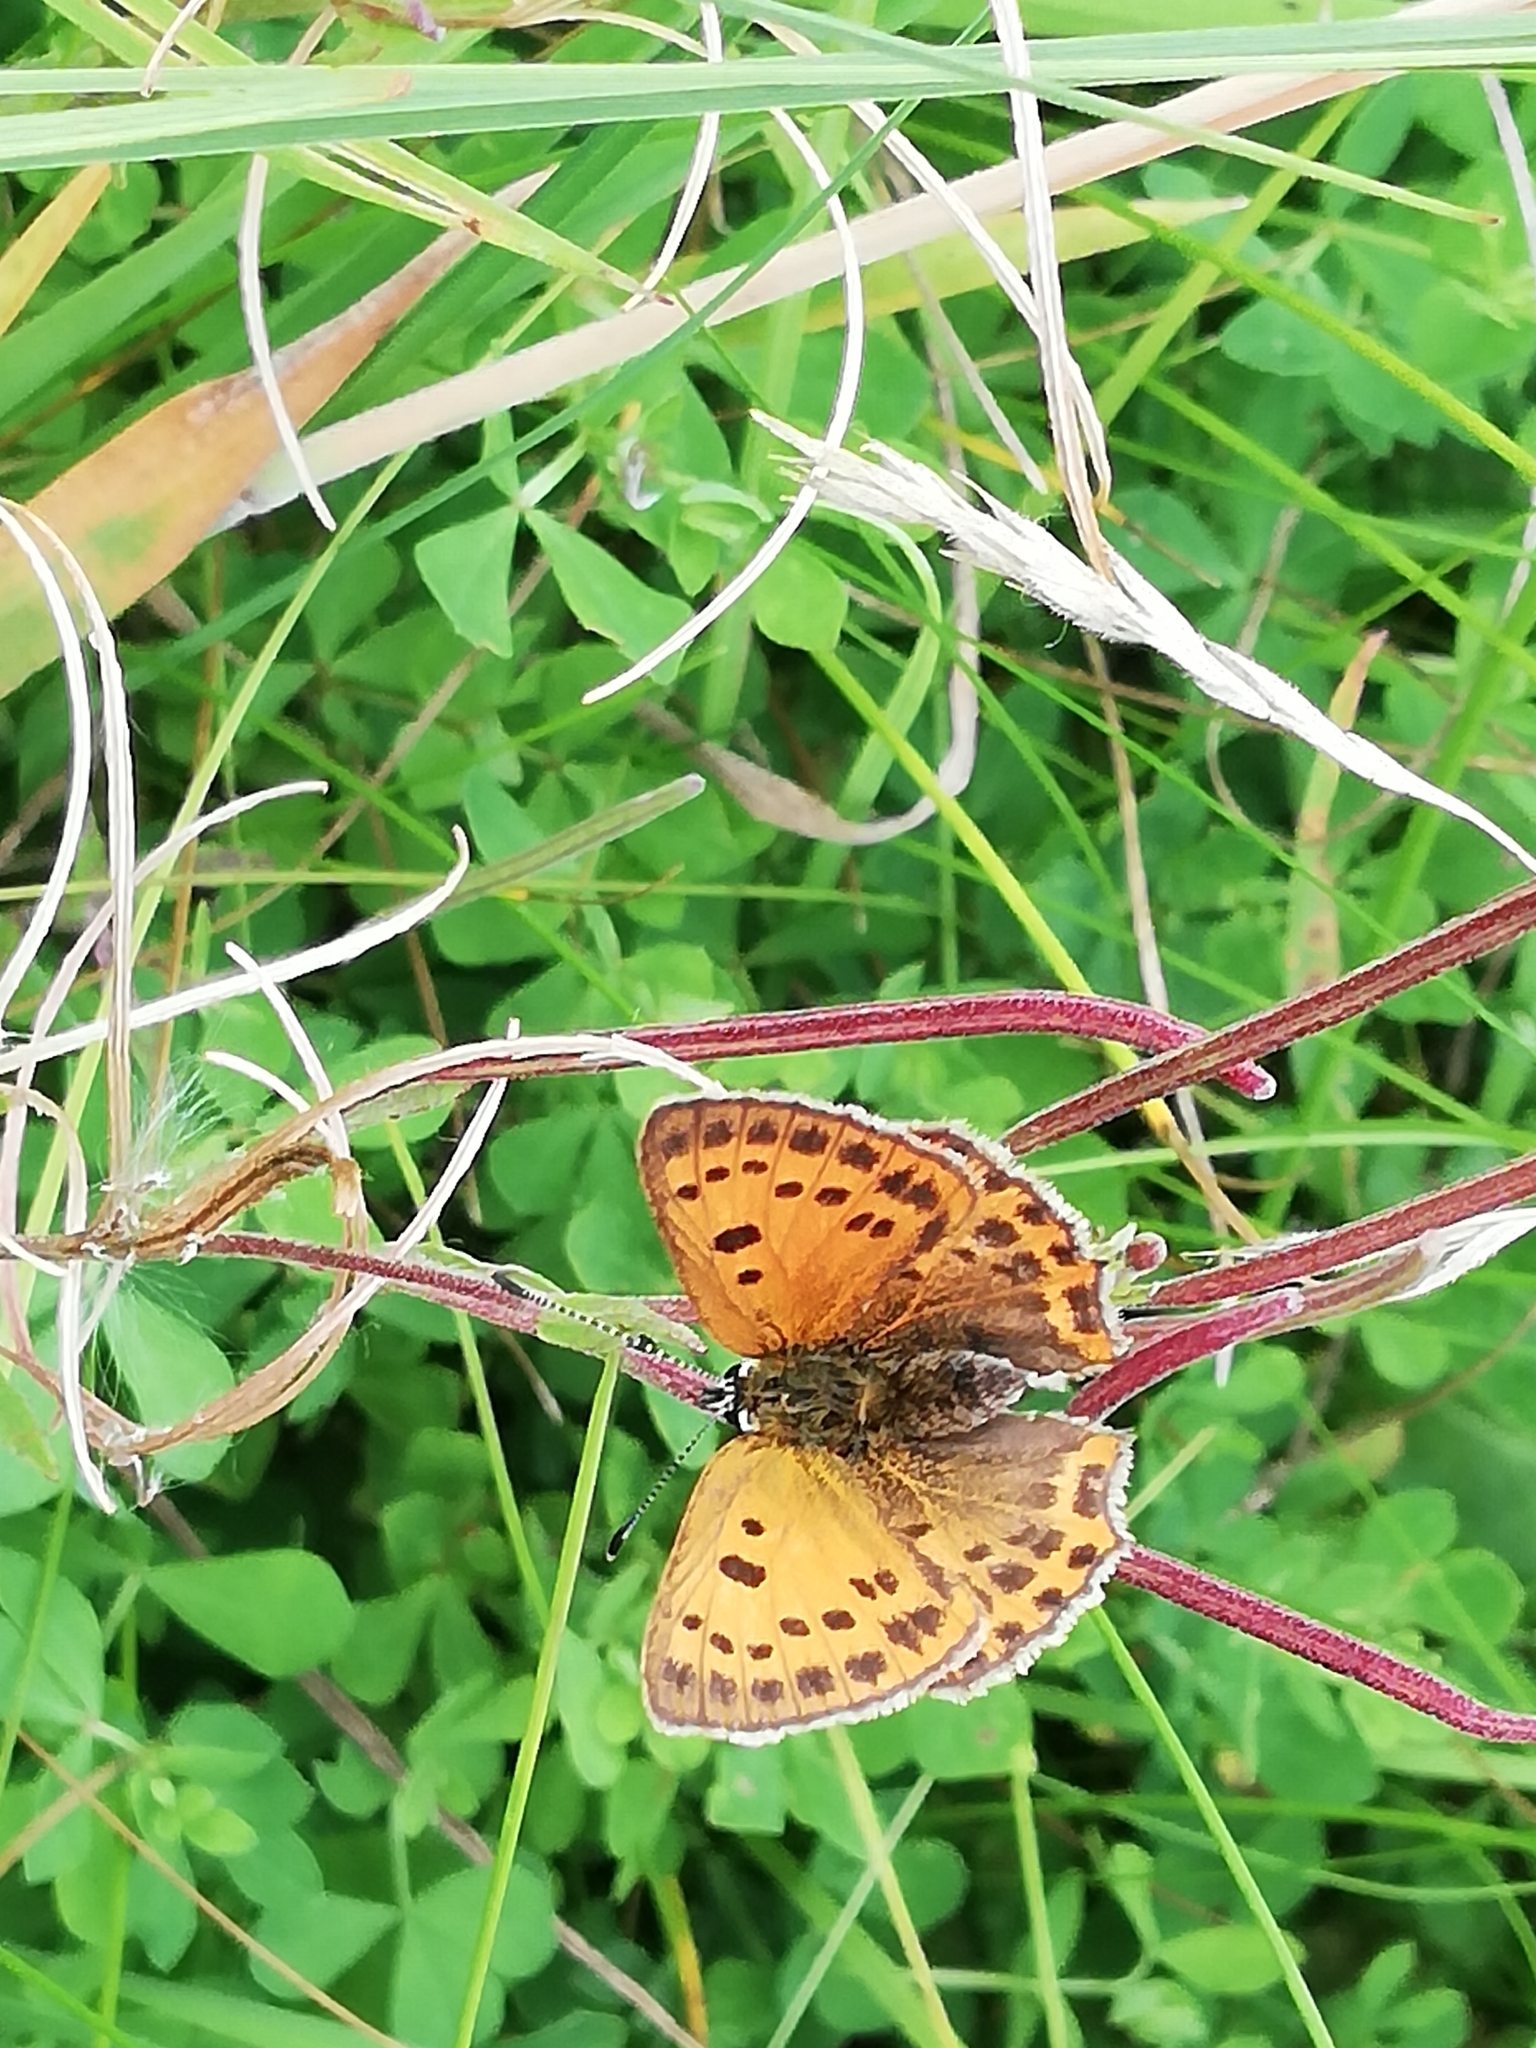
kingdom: Animalia
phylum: Arthropoda
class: Insecta
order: Lepidoptera
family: Lycaenidae
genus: Lycaena
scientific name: Lycaena virgaureae
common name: Scarce copper
